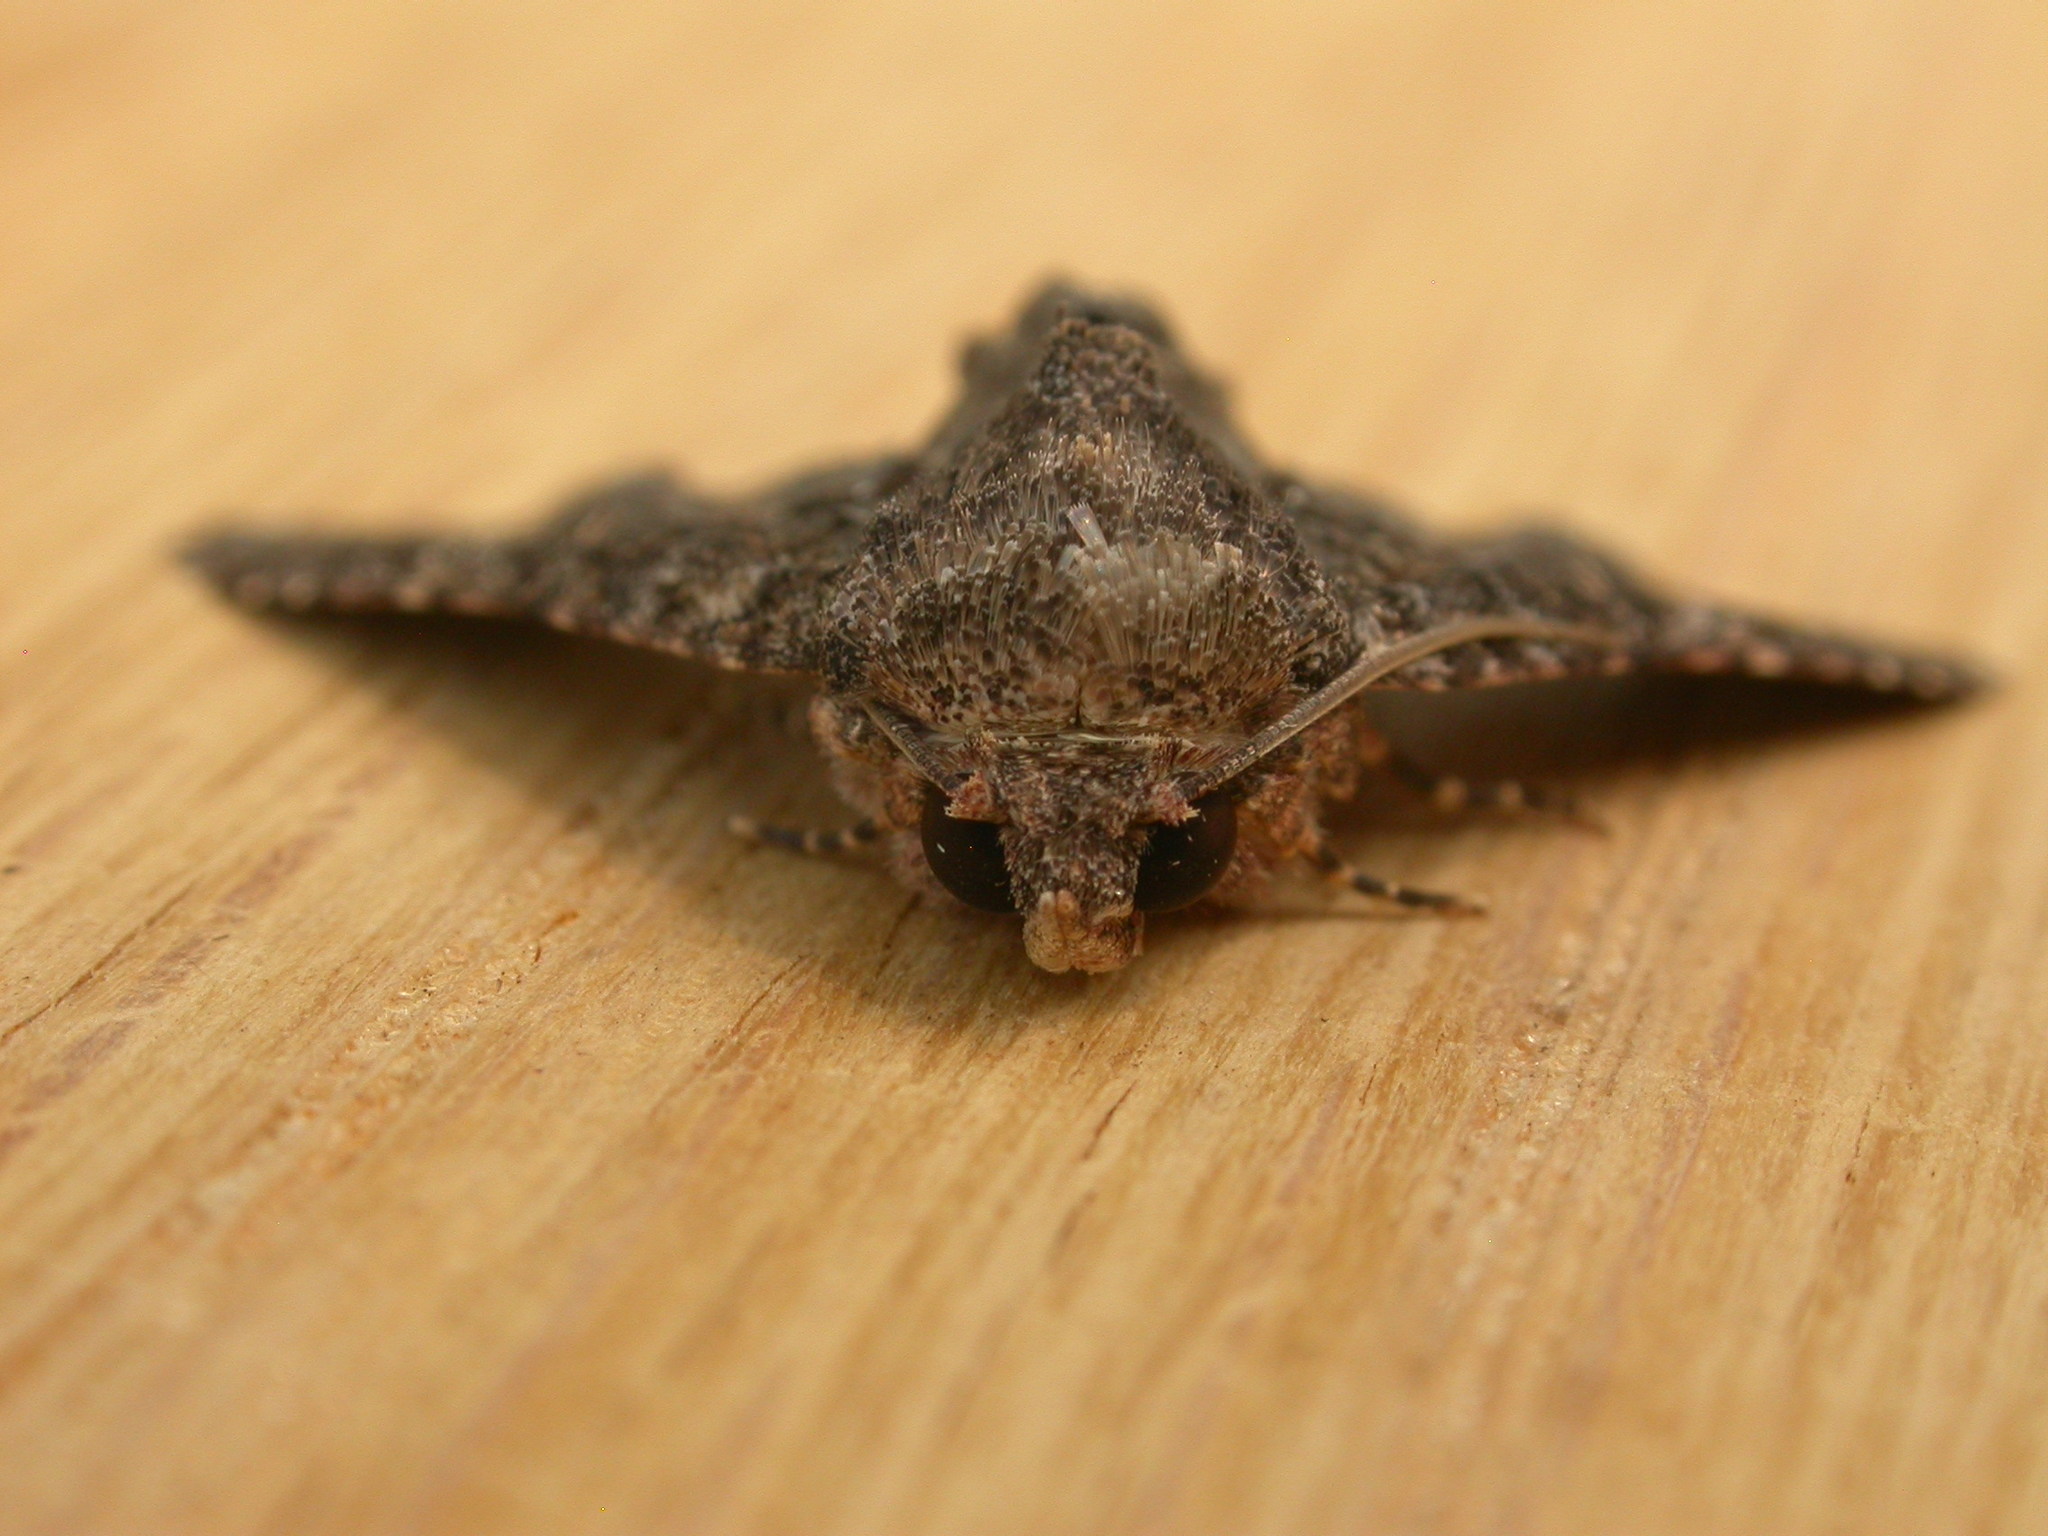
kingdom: Animalia
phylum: Arthropoda
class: Insecta
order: Lepidoptera
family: Euteliidae
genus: Pataeta
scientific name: Pataeta carbo
